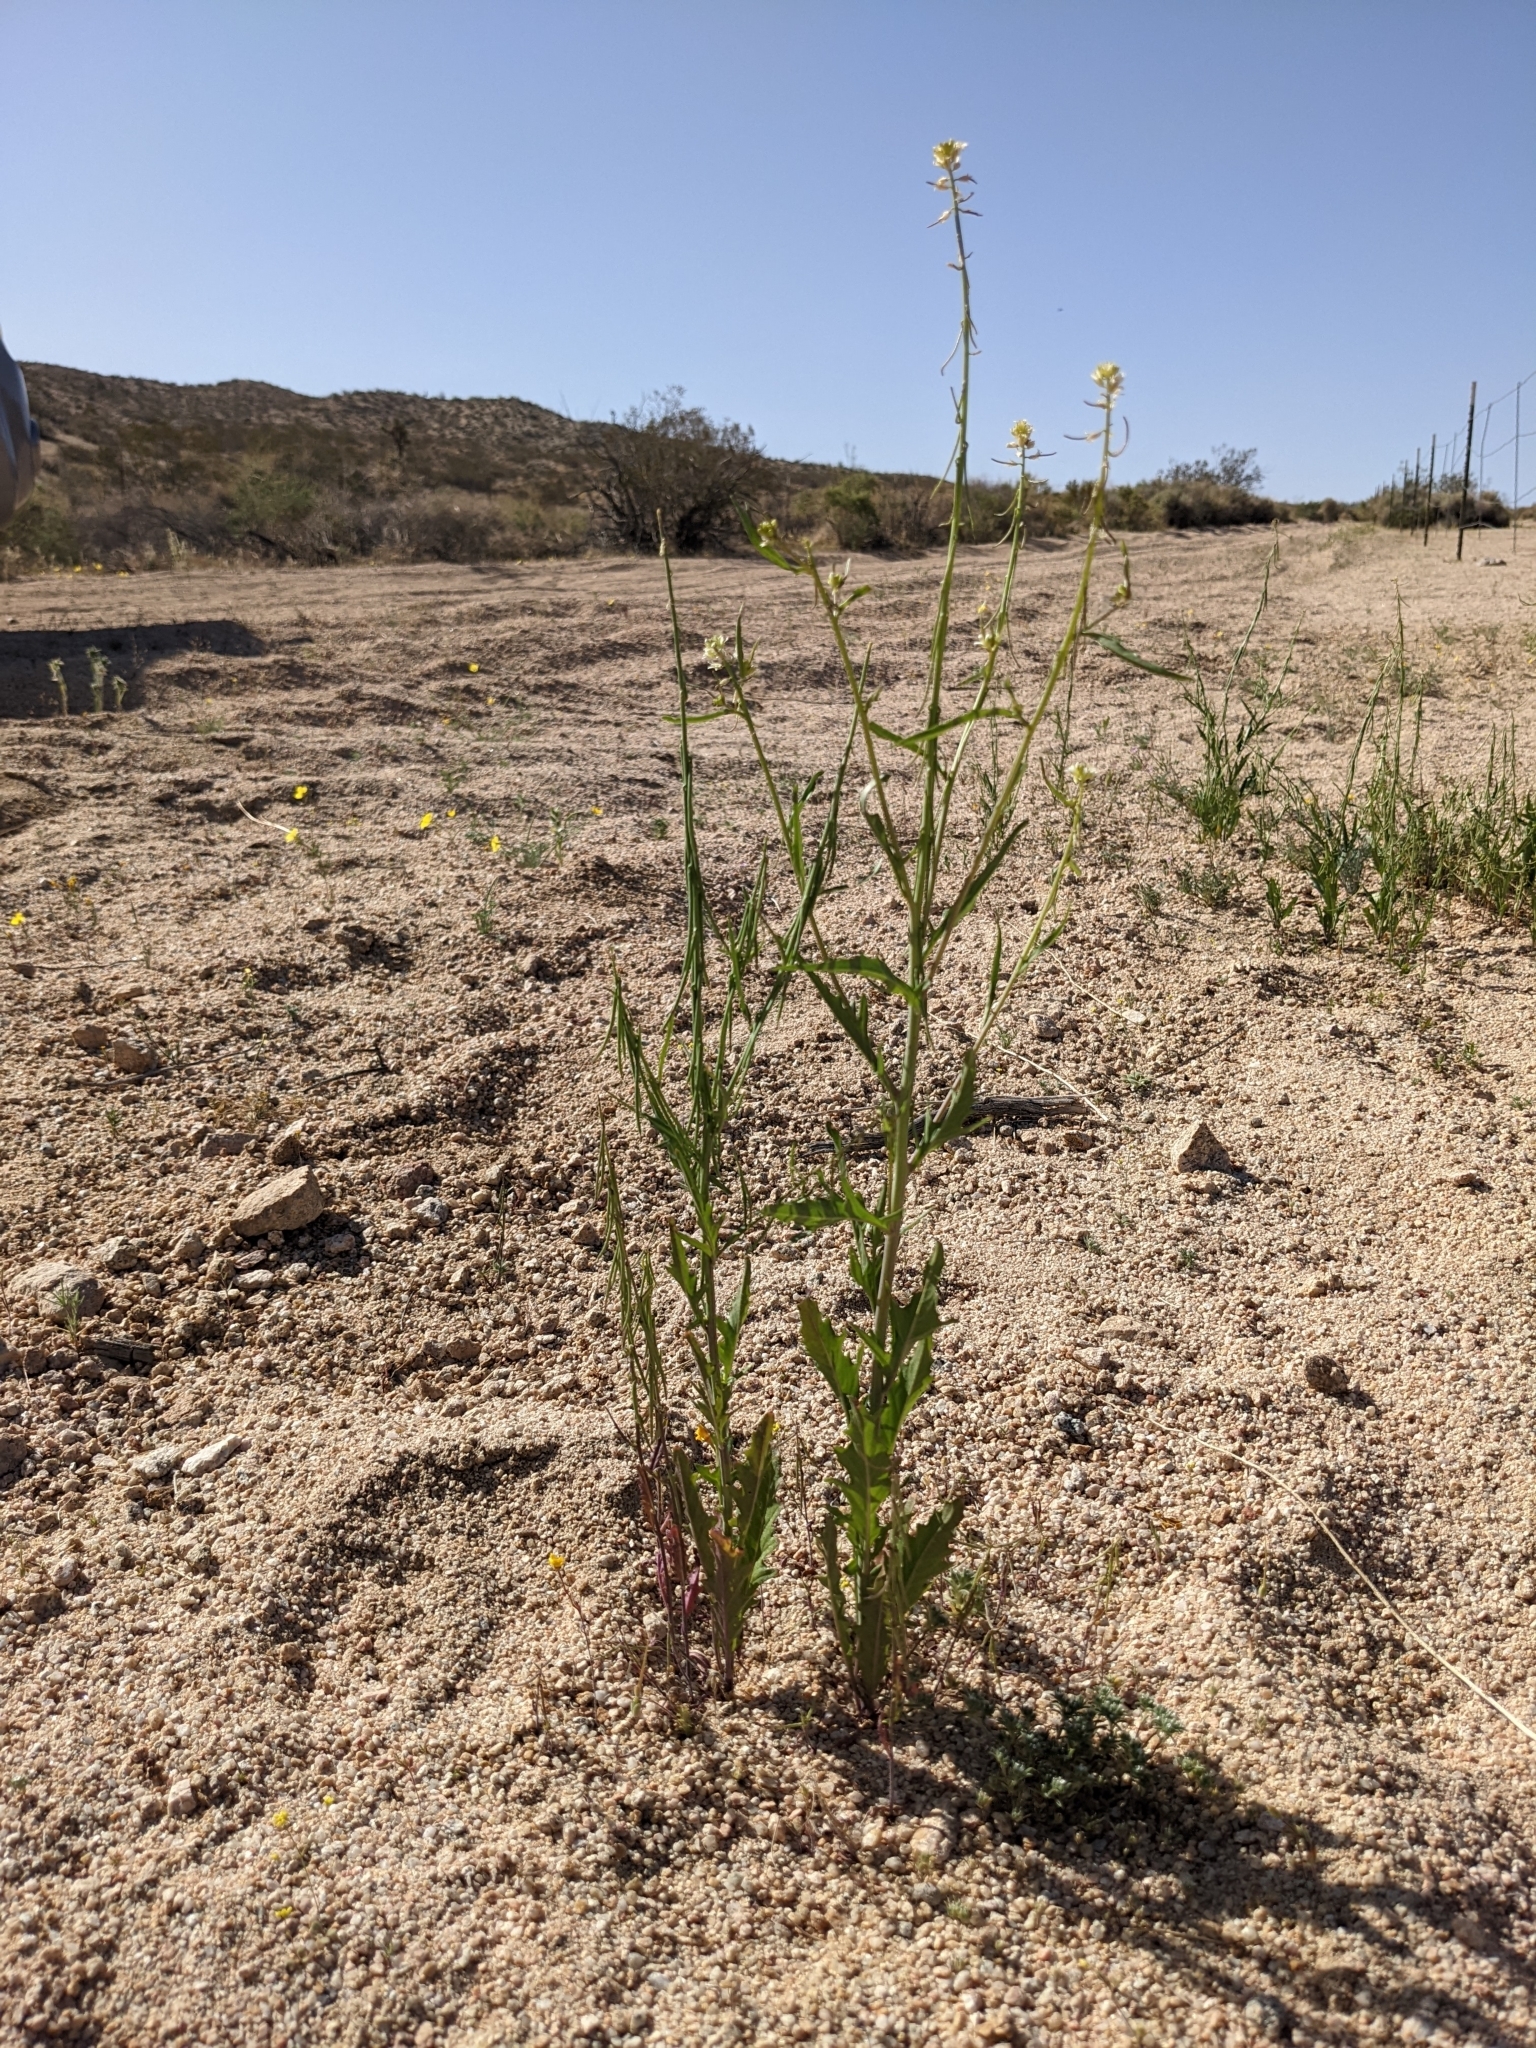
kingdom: Plantae
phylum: Tracheophyta
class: Magnoliopsida
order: Brassicales
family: Brassicaceae
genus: Streptanthus
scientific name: Streptanthus lasiophyllus
